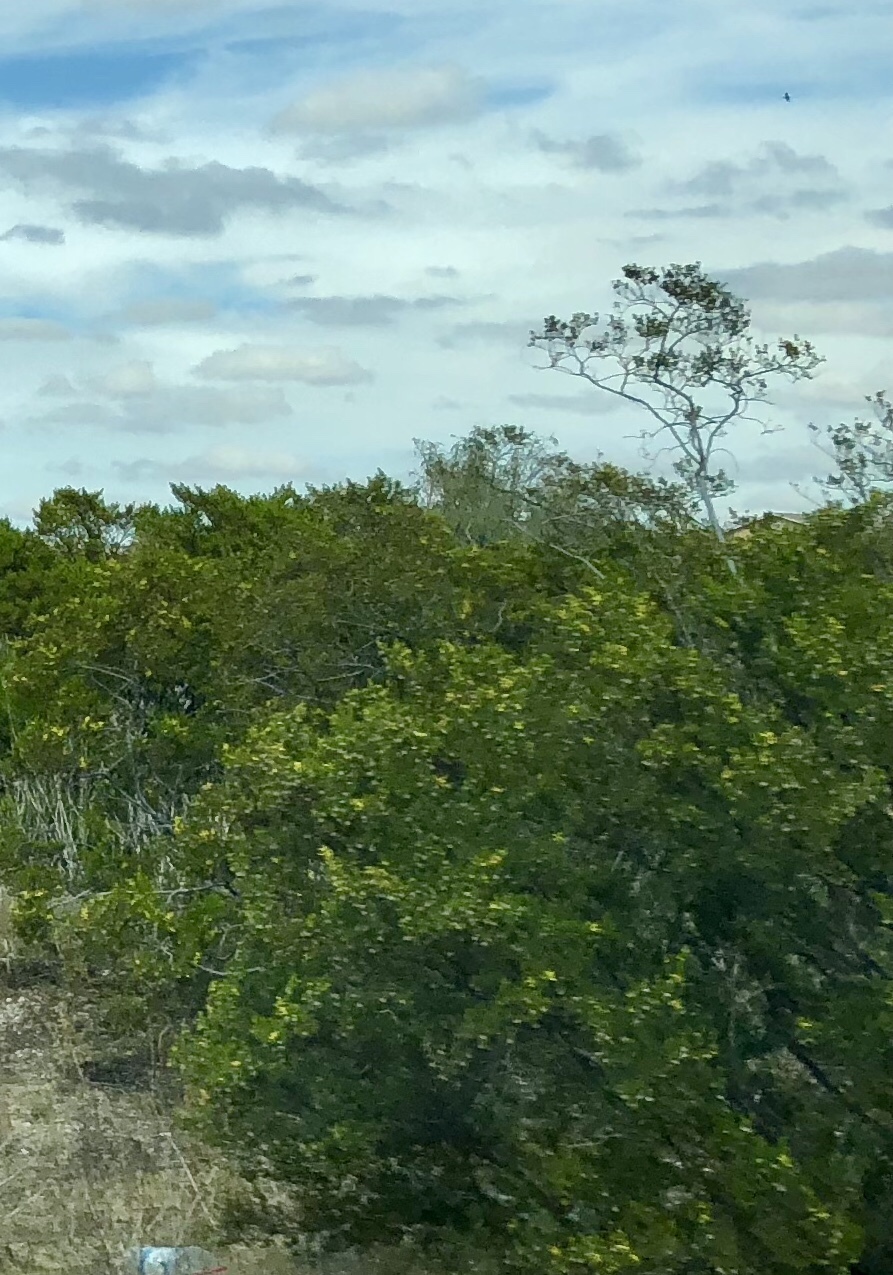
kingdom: Plantae
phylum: Tracheophyta
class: Magnoliopsida
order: Zygophyllales
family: Zygophyllaceae
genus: Larrea
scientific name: Larrea tridentata
